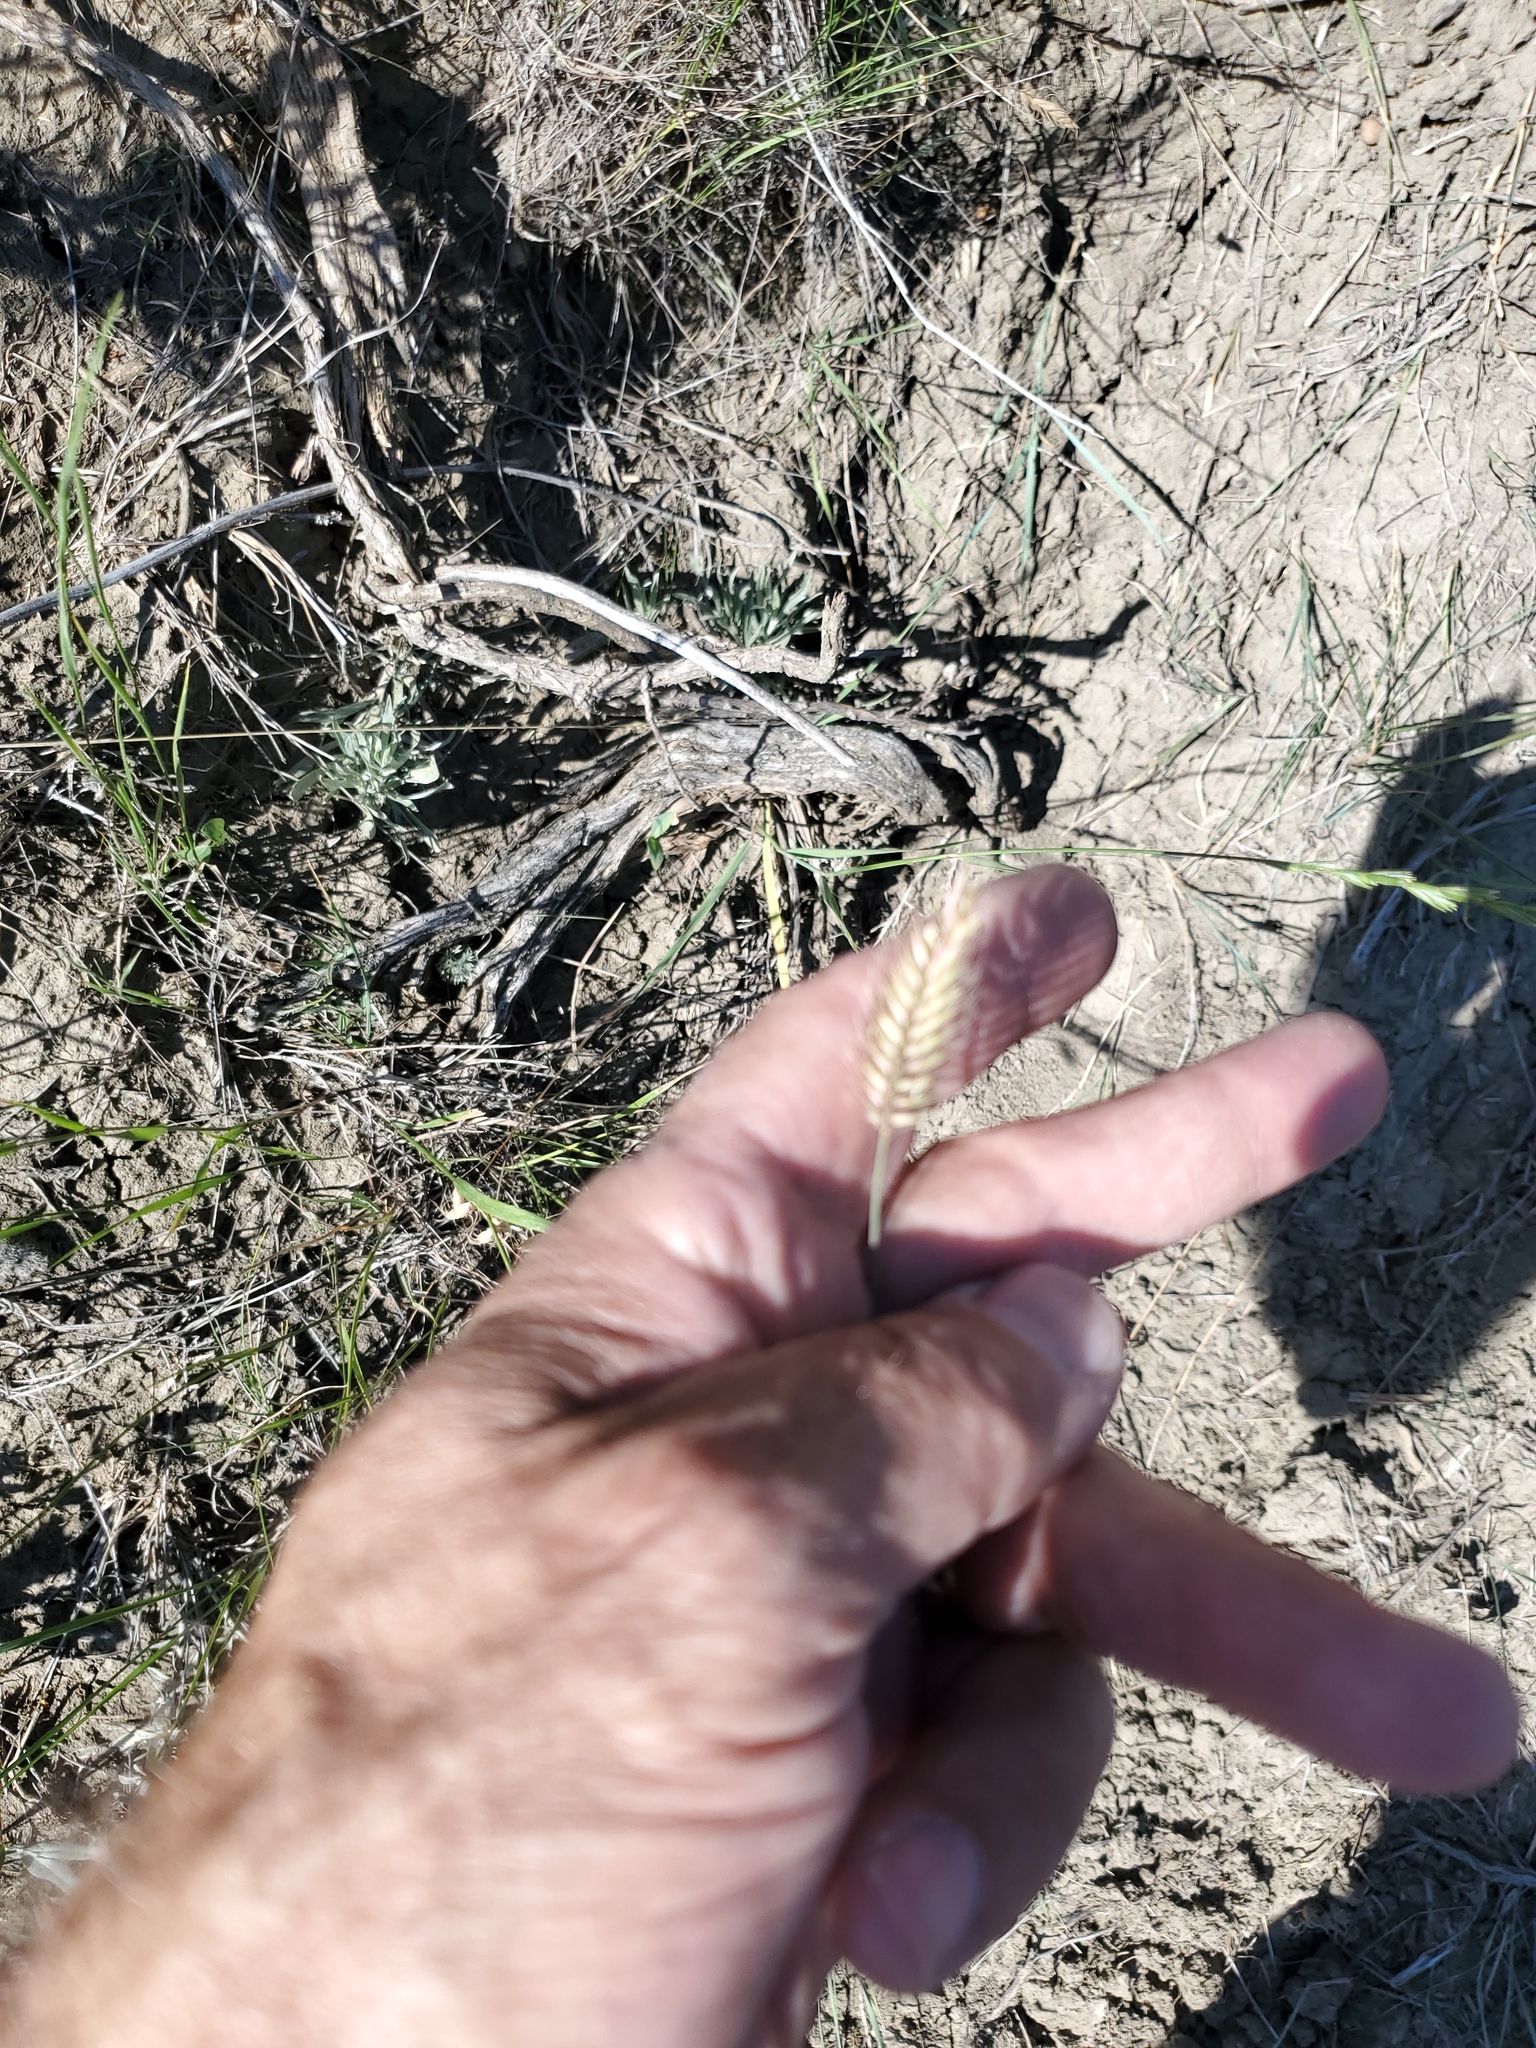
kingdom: Plantae
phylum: Tracheophyta
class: Liliopsida
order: Poales
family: Poaceae
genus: Agropyron
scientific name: Agropyron cristatum
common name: Crested wheatgrass
